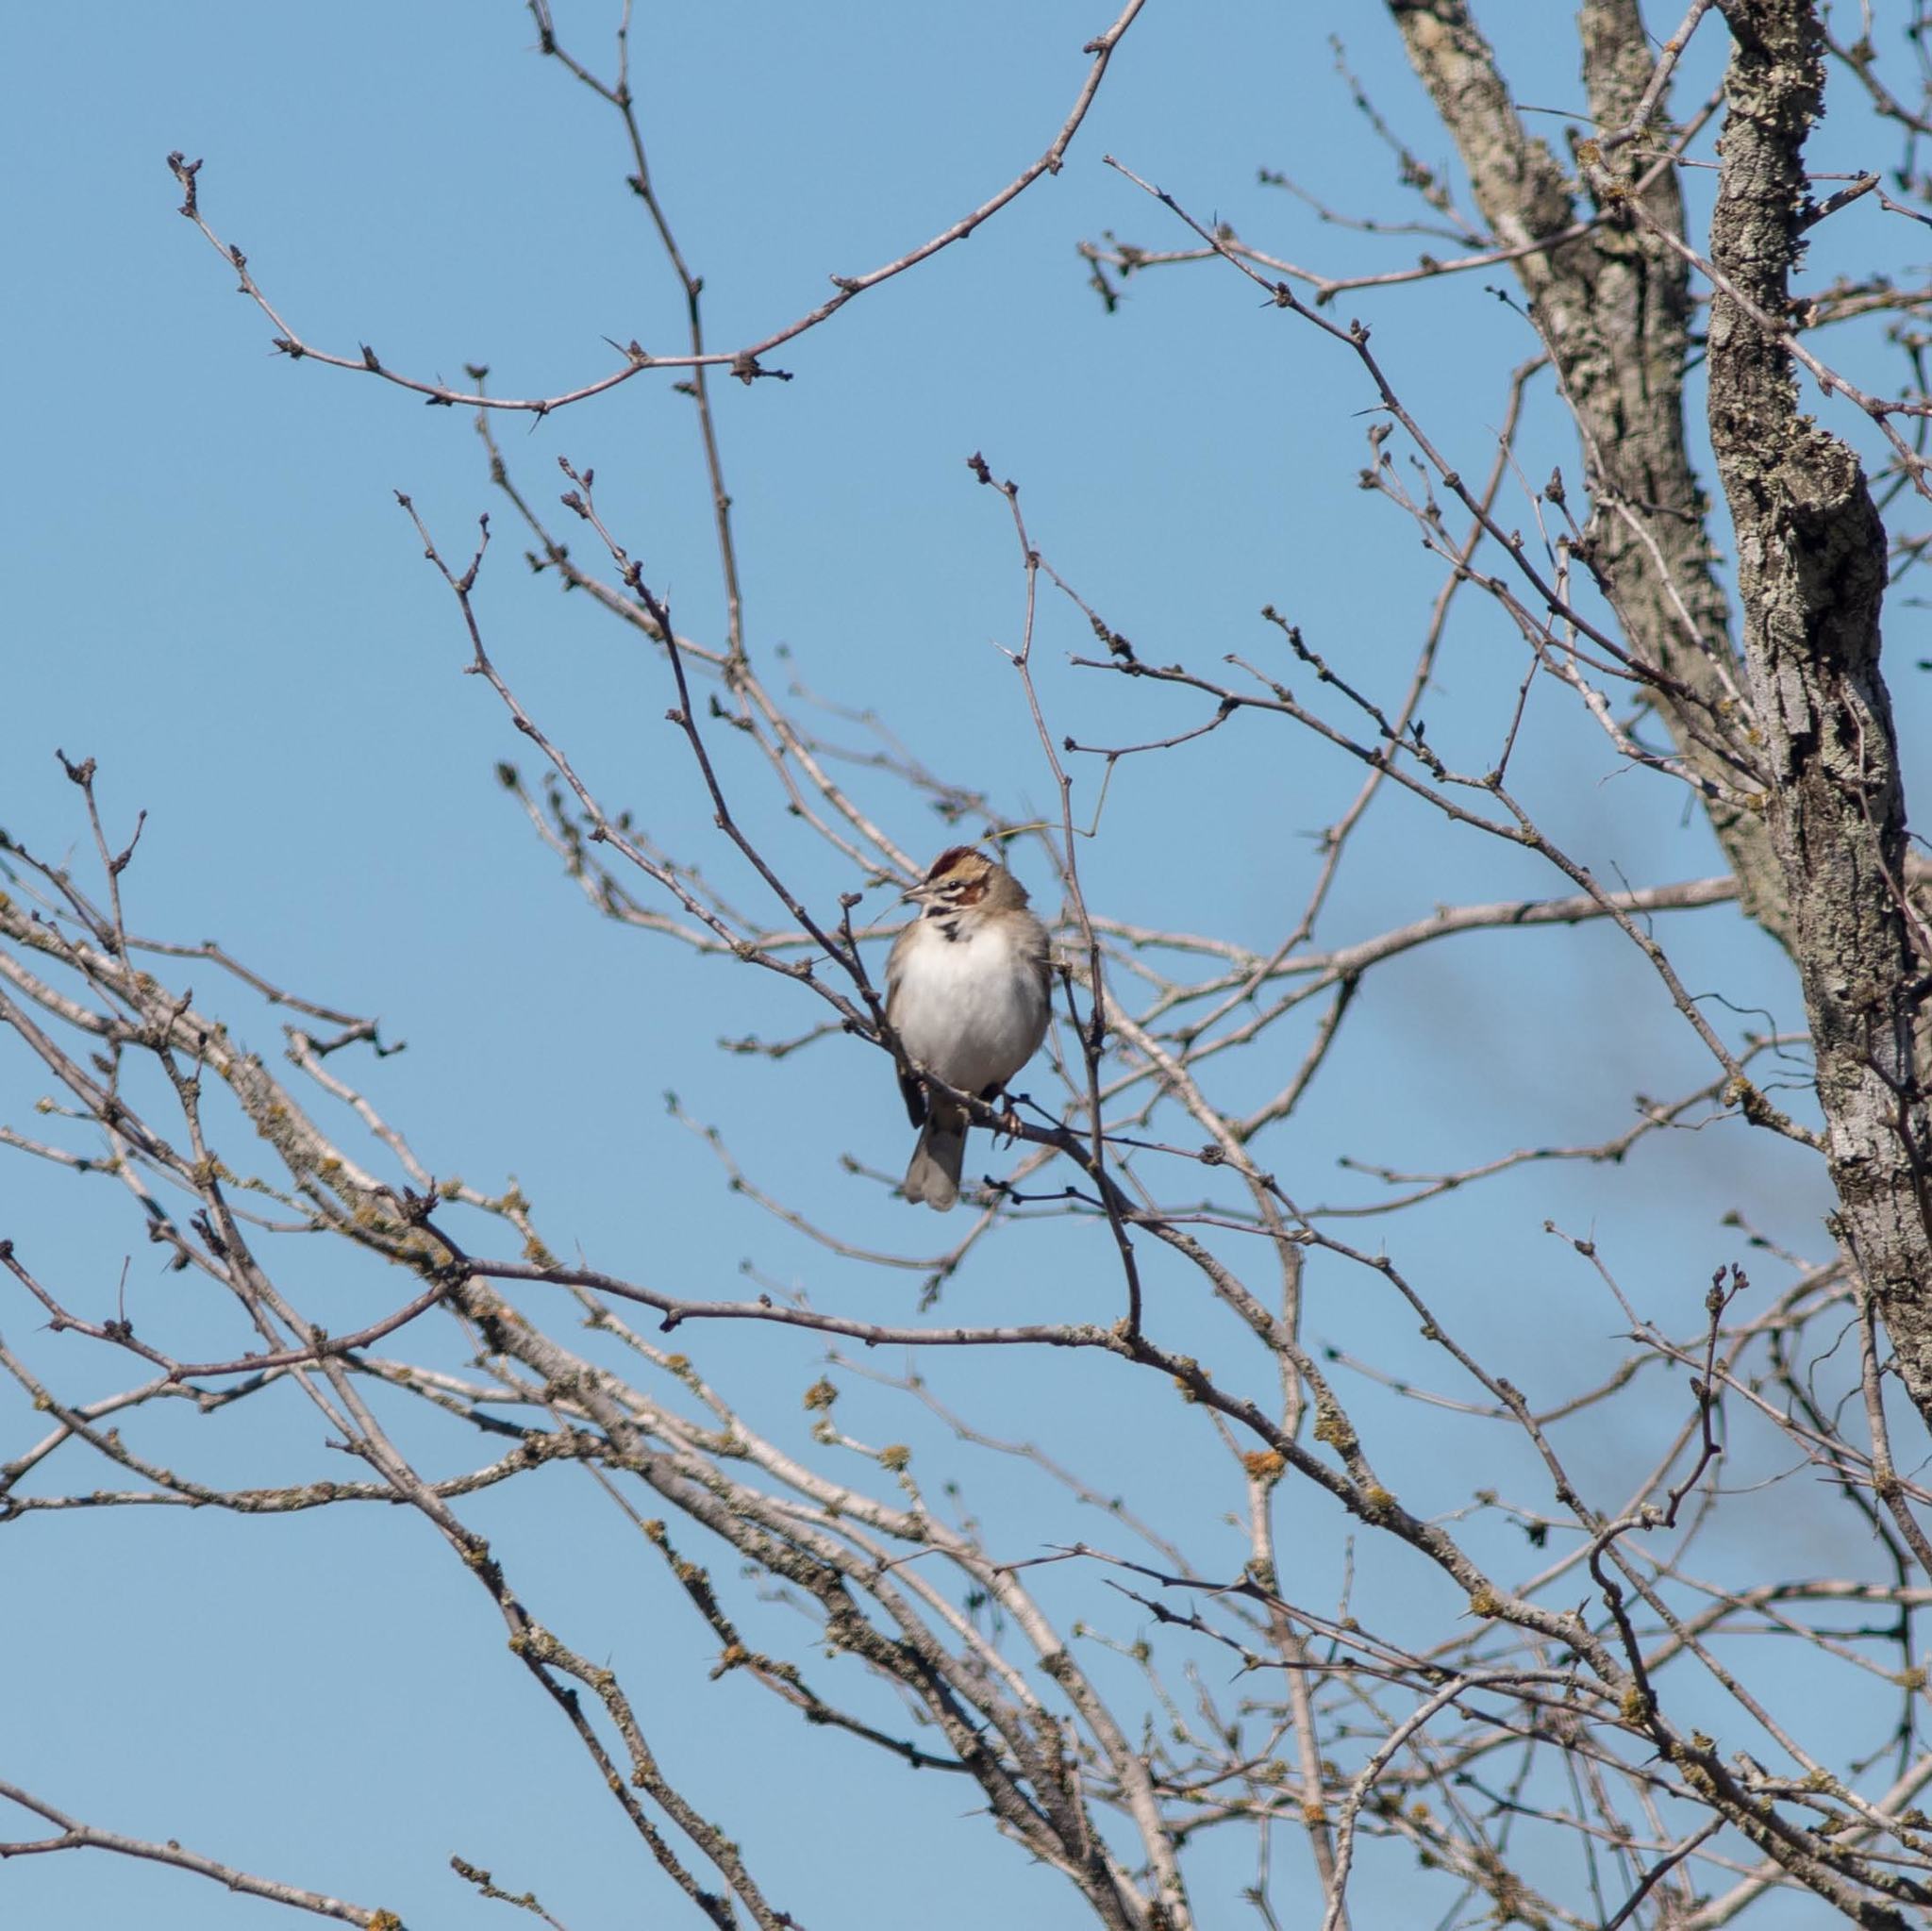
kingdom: Animalia
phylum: Chordata
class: Aves
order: Passeriformes
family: Passerellidae
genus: Chondestes
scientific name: Chondestes grammacus
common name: Lark sparrow
